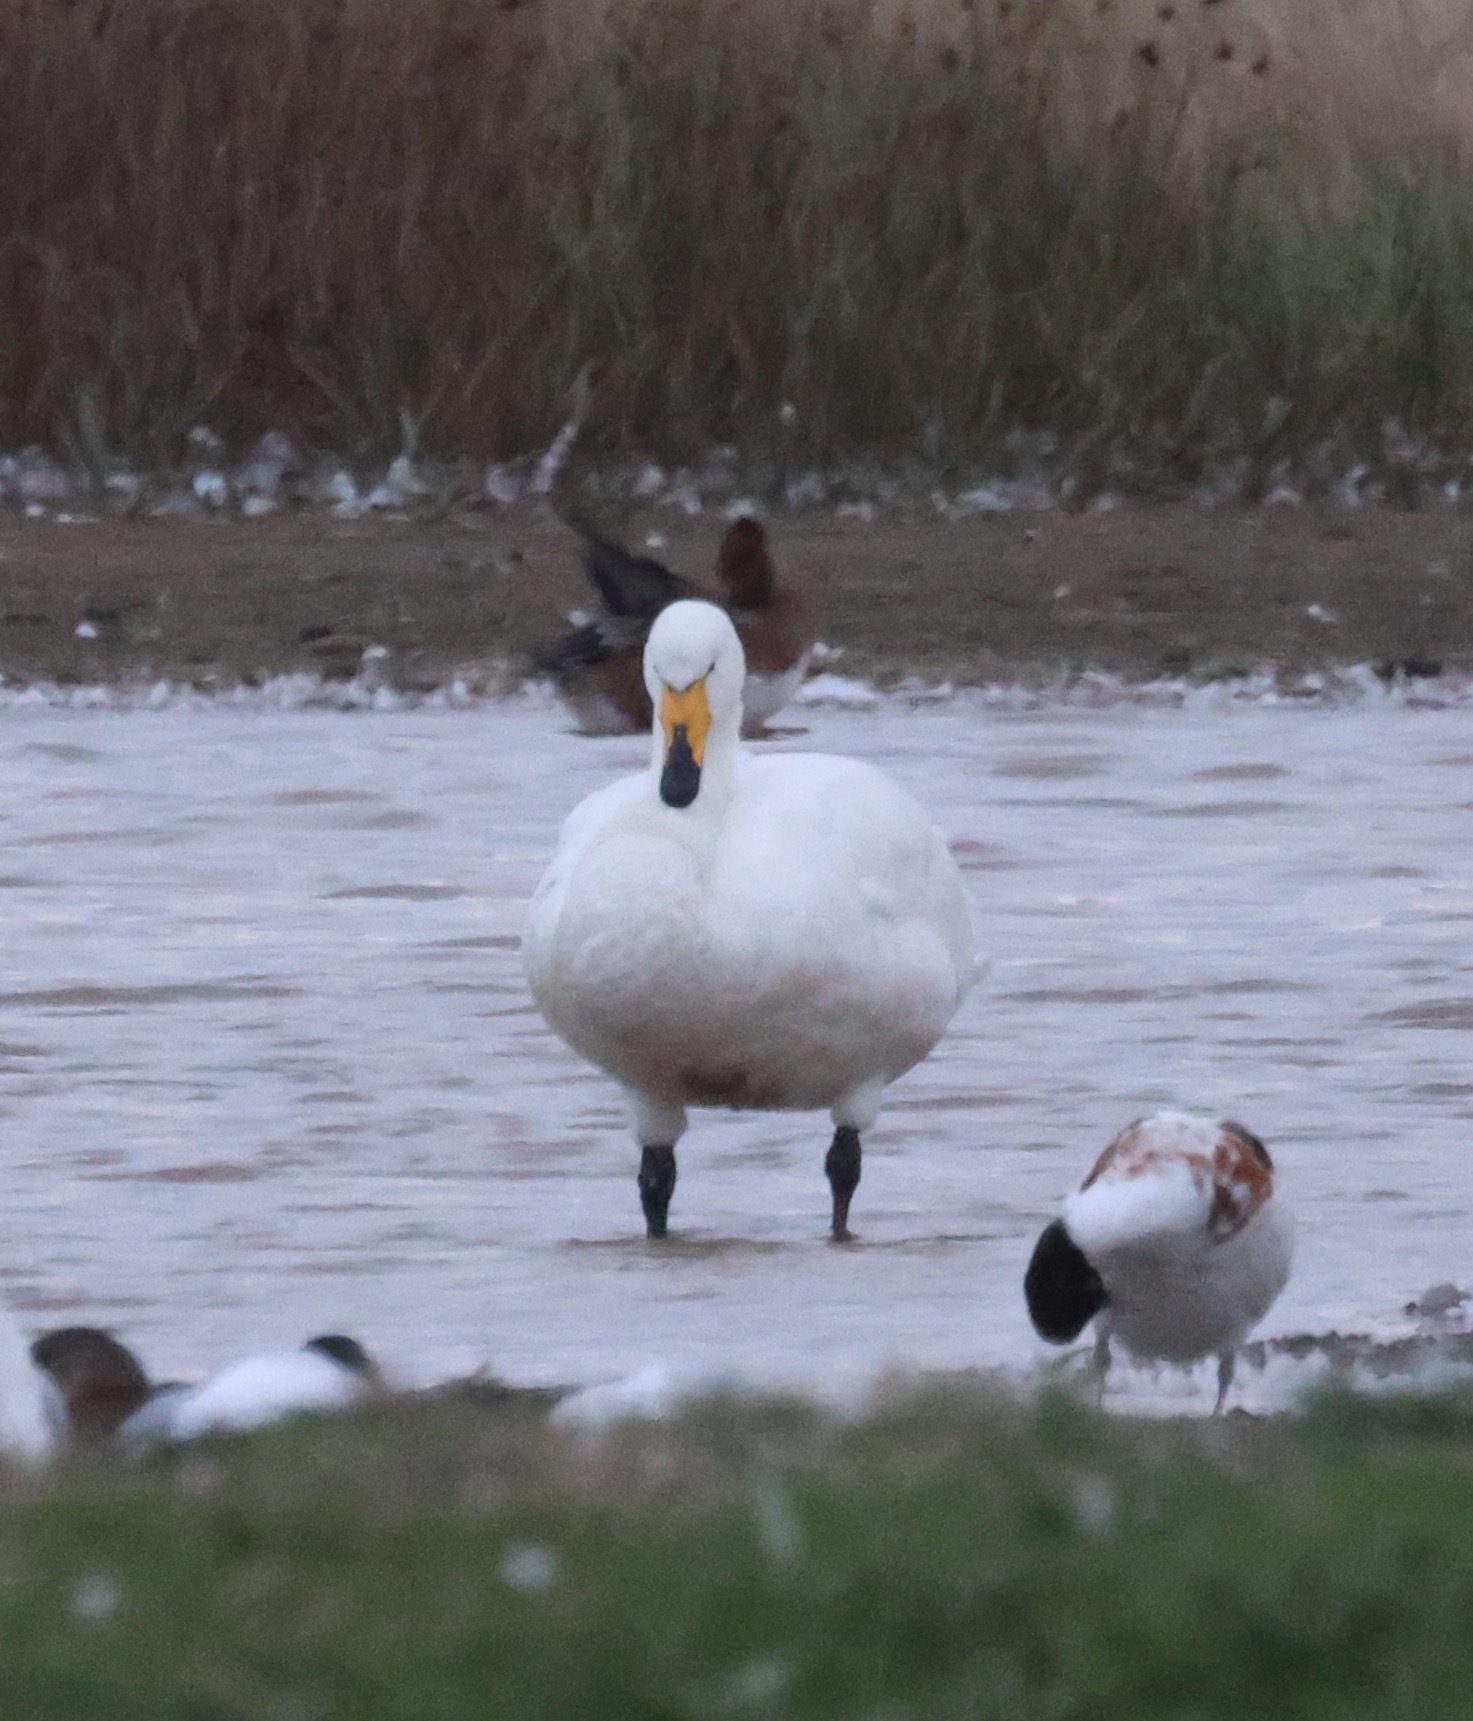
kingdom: Animalia
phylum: Chordata
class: Aves
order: Anseriformes
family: Anatidae
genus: Cygnus
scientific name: Cygnus cygnus
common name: Whooper swan
